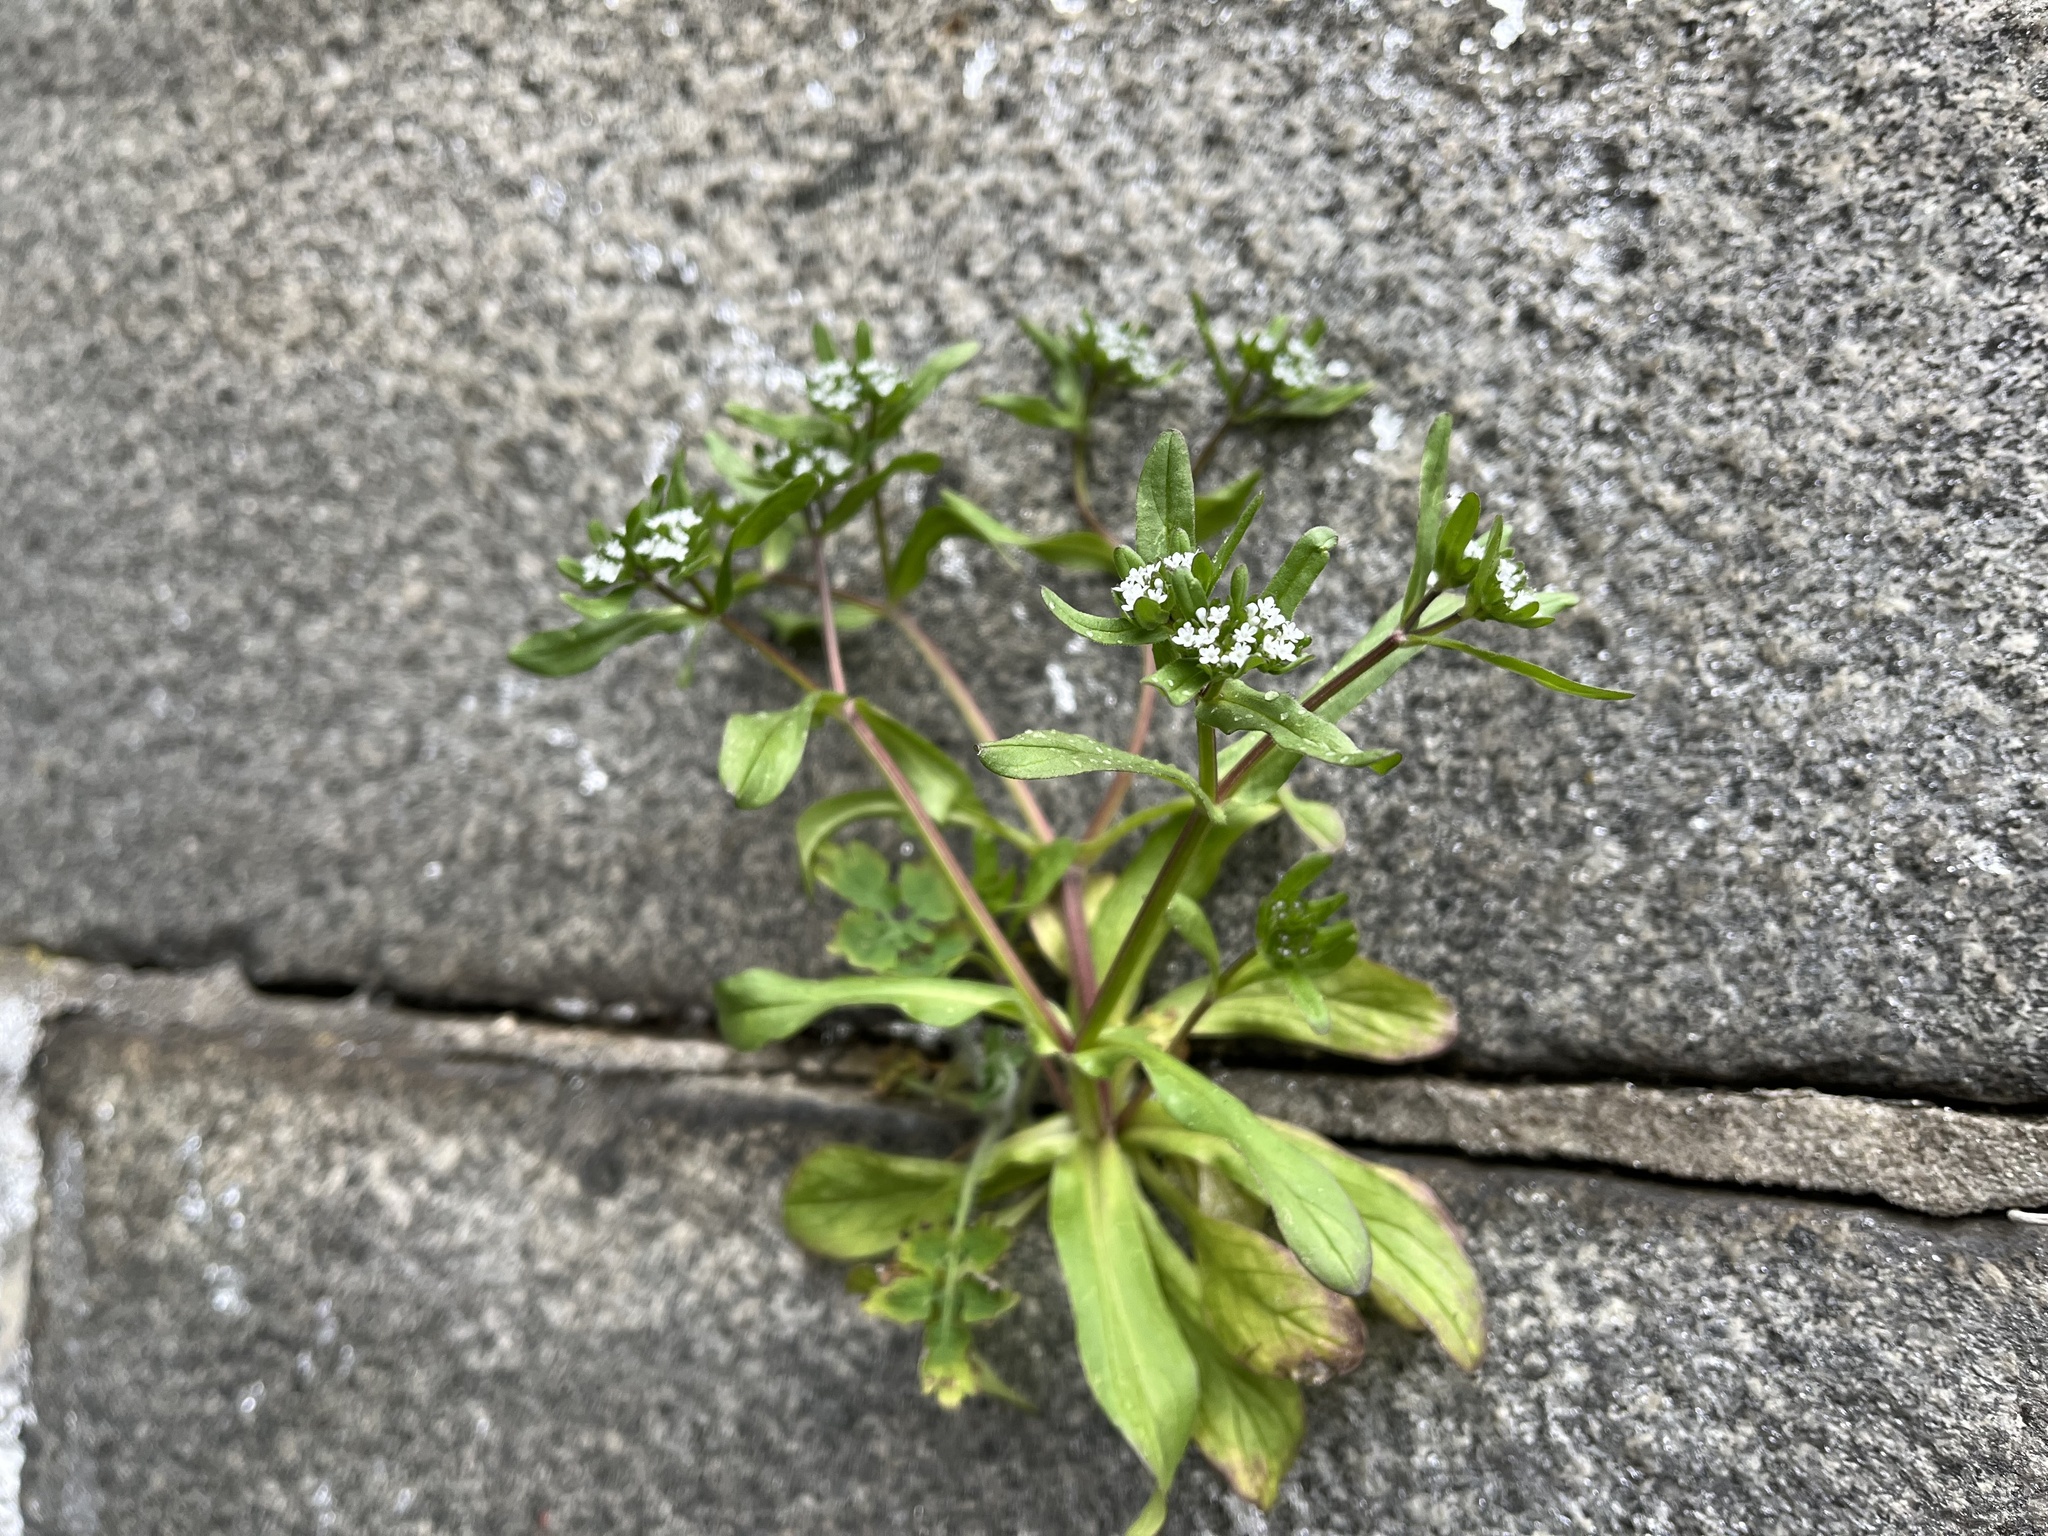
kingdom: Plantae
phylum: Tracheophyta
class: Magnoliopsida
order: Dipsacales
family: Caprifoliaceae
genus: Valerianella
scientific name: Valerianella locusta
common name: Common cornsalad
